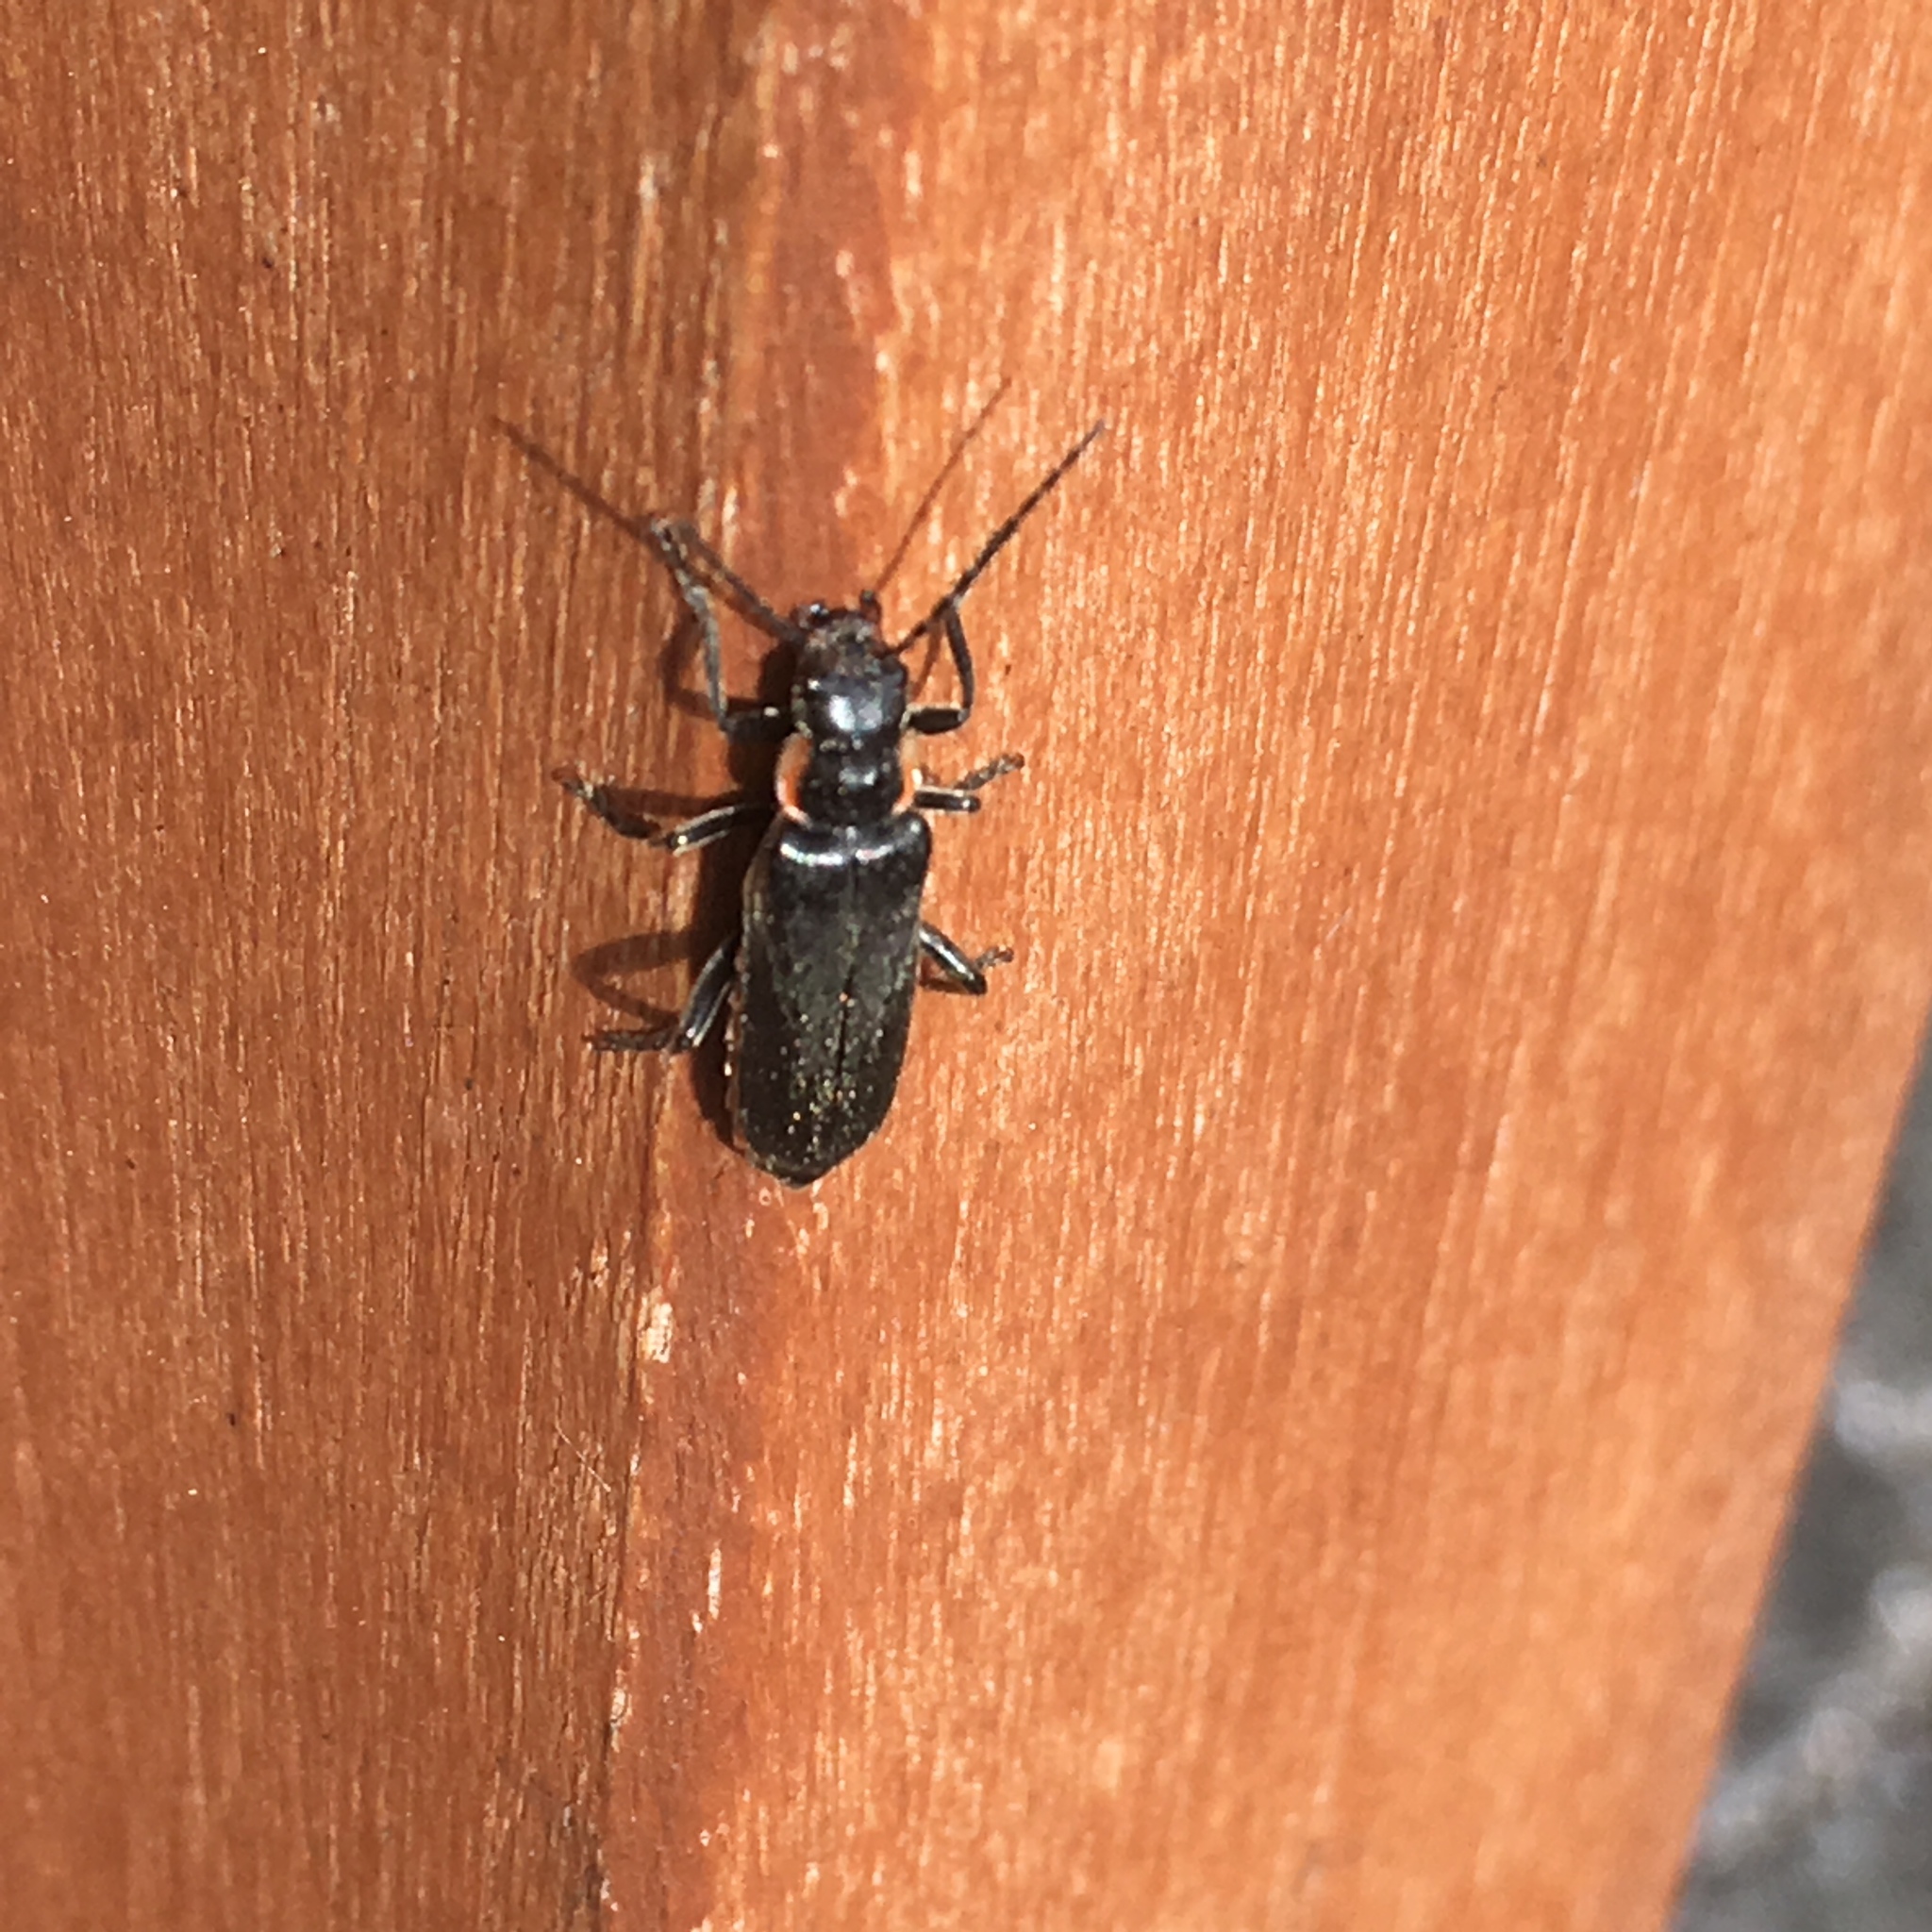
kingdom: Animalia
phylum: Arthropoda
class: Insecta
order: Coleoptera
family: Cantharidae
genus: Cantharis
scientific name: Cantharis obscura
